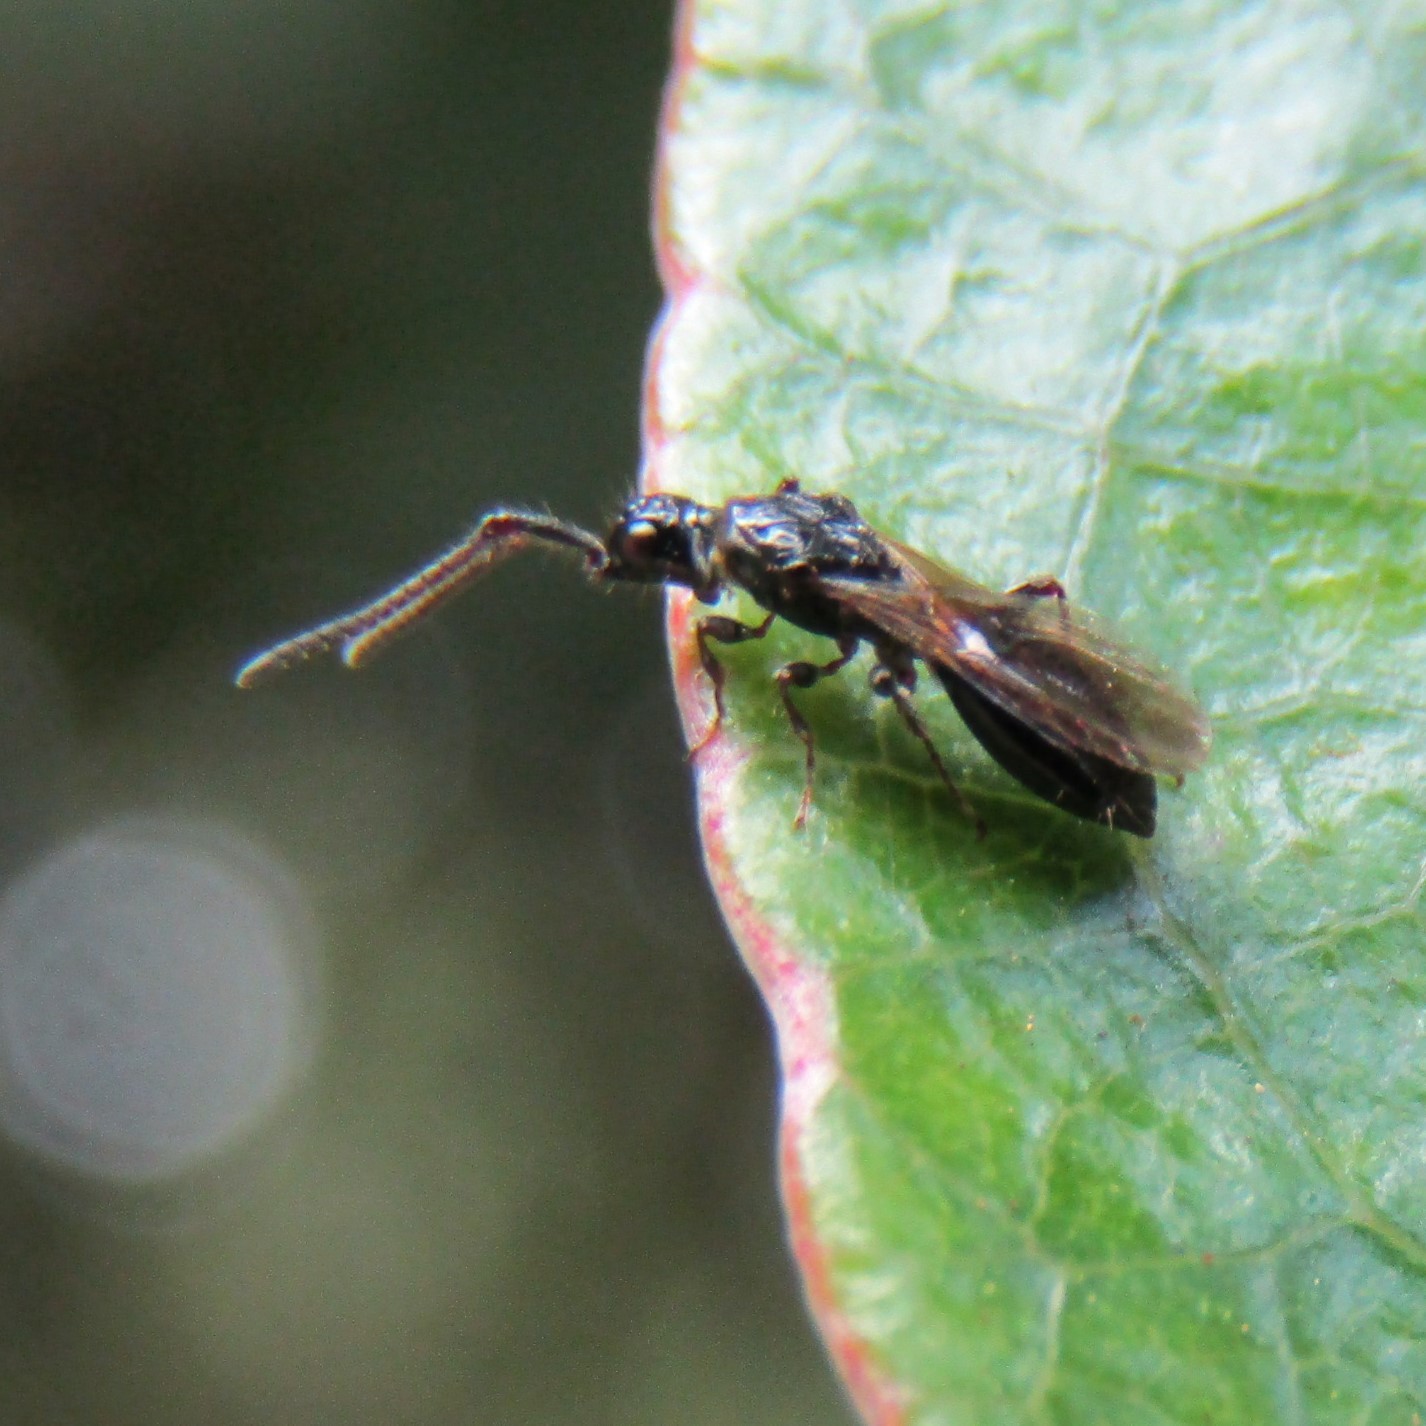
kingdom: Animalia
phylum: Arthropoda
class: Insecta
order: Hymenoptera
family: Diapriidae
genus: Neurogalesus
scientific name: Neurogalesus carinatus
